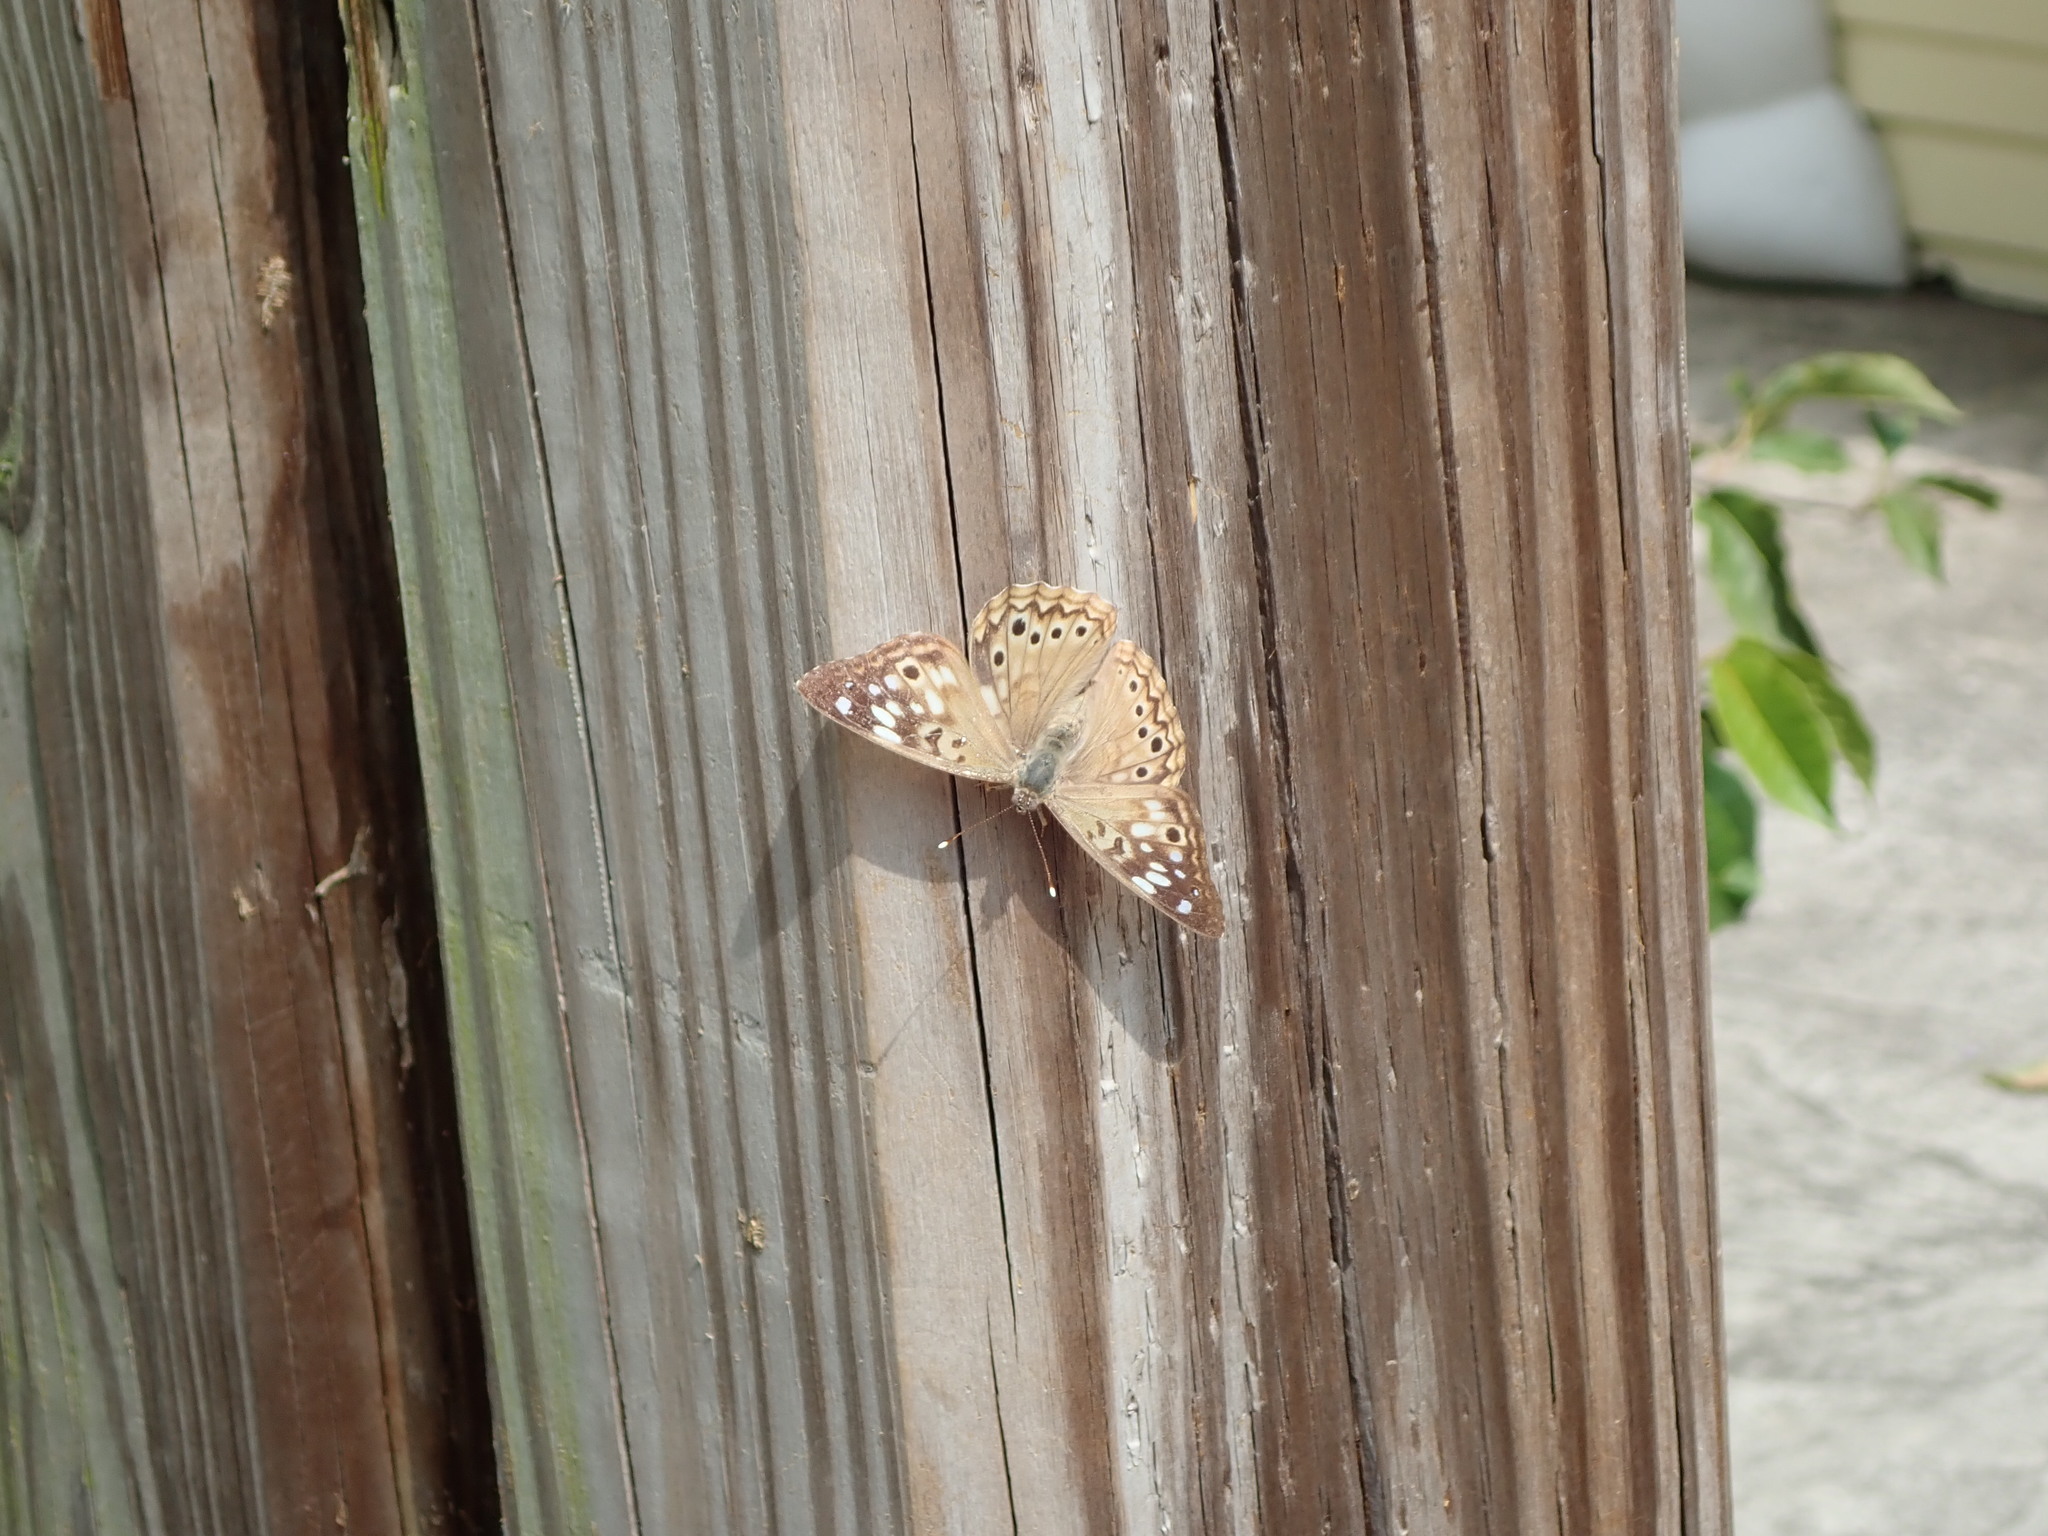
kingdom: Animalia
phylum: Arthropoda
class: Insecta
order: Lepidoptera
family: Nymphalidae
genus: Asterocampa
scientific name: Asterocampa celtis
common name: Hackberry emperor
